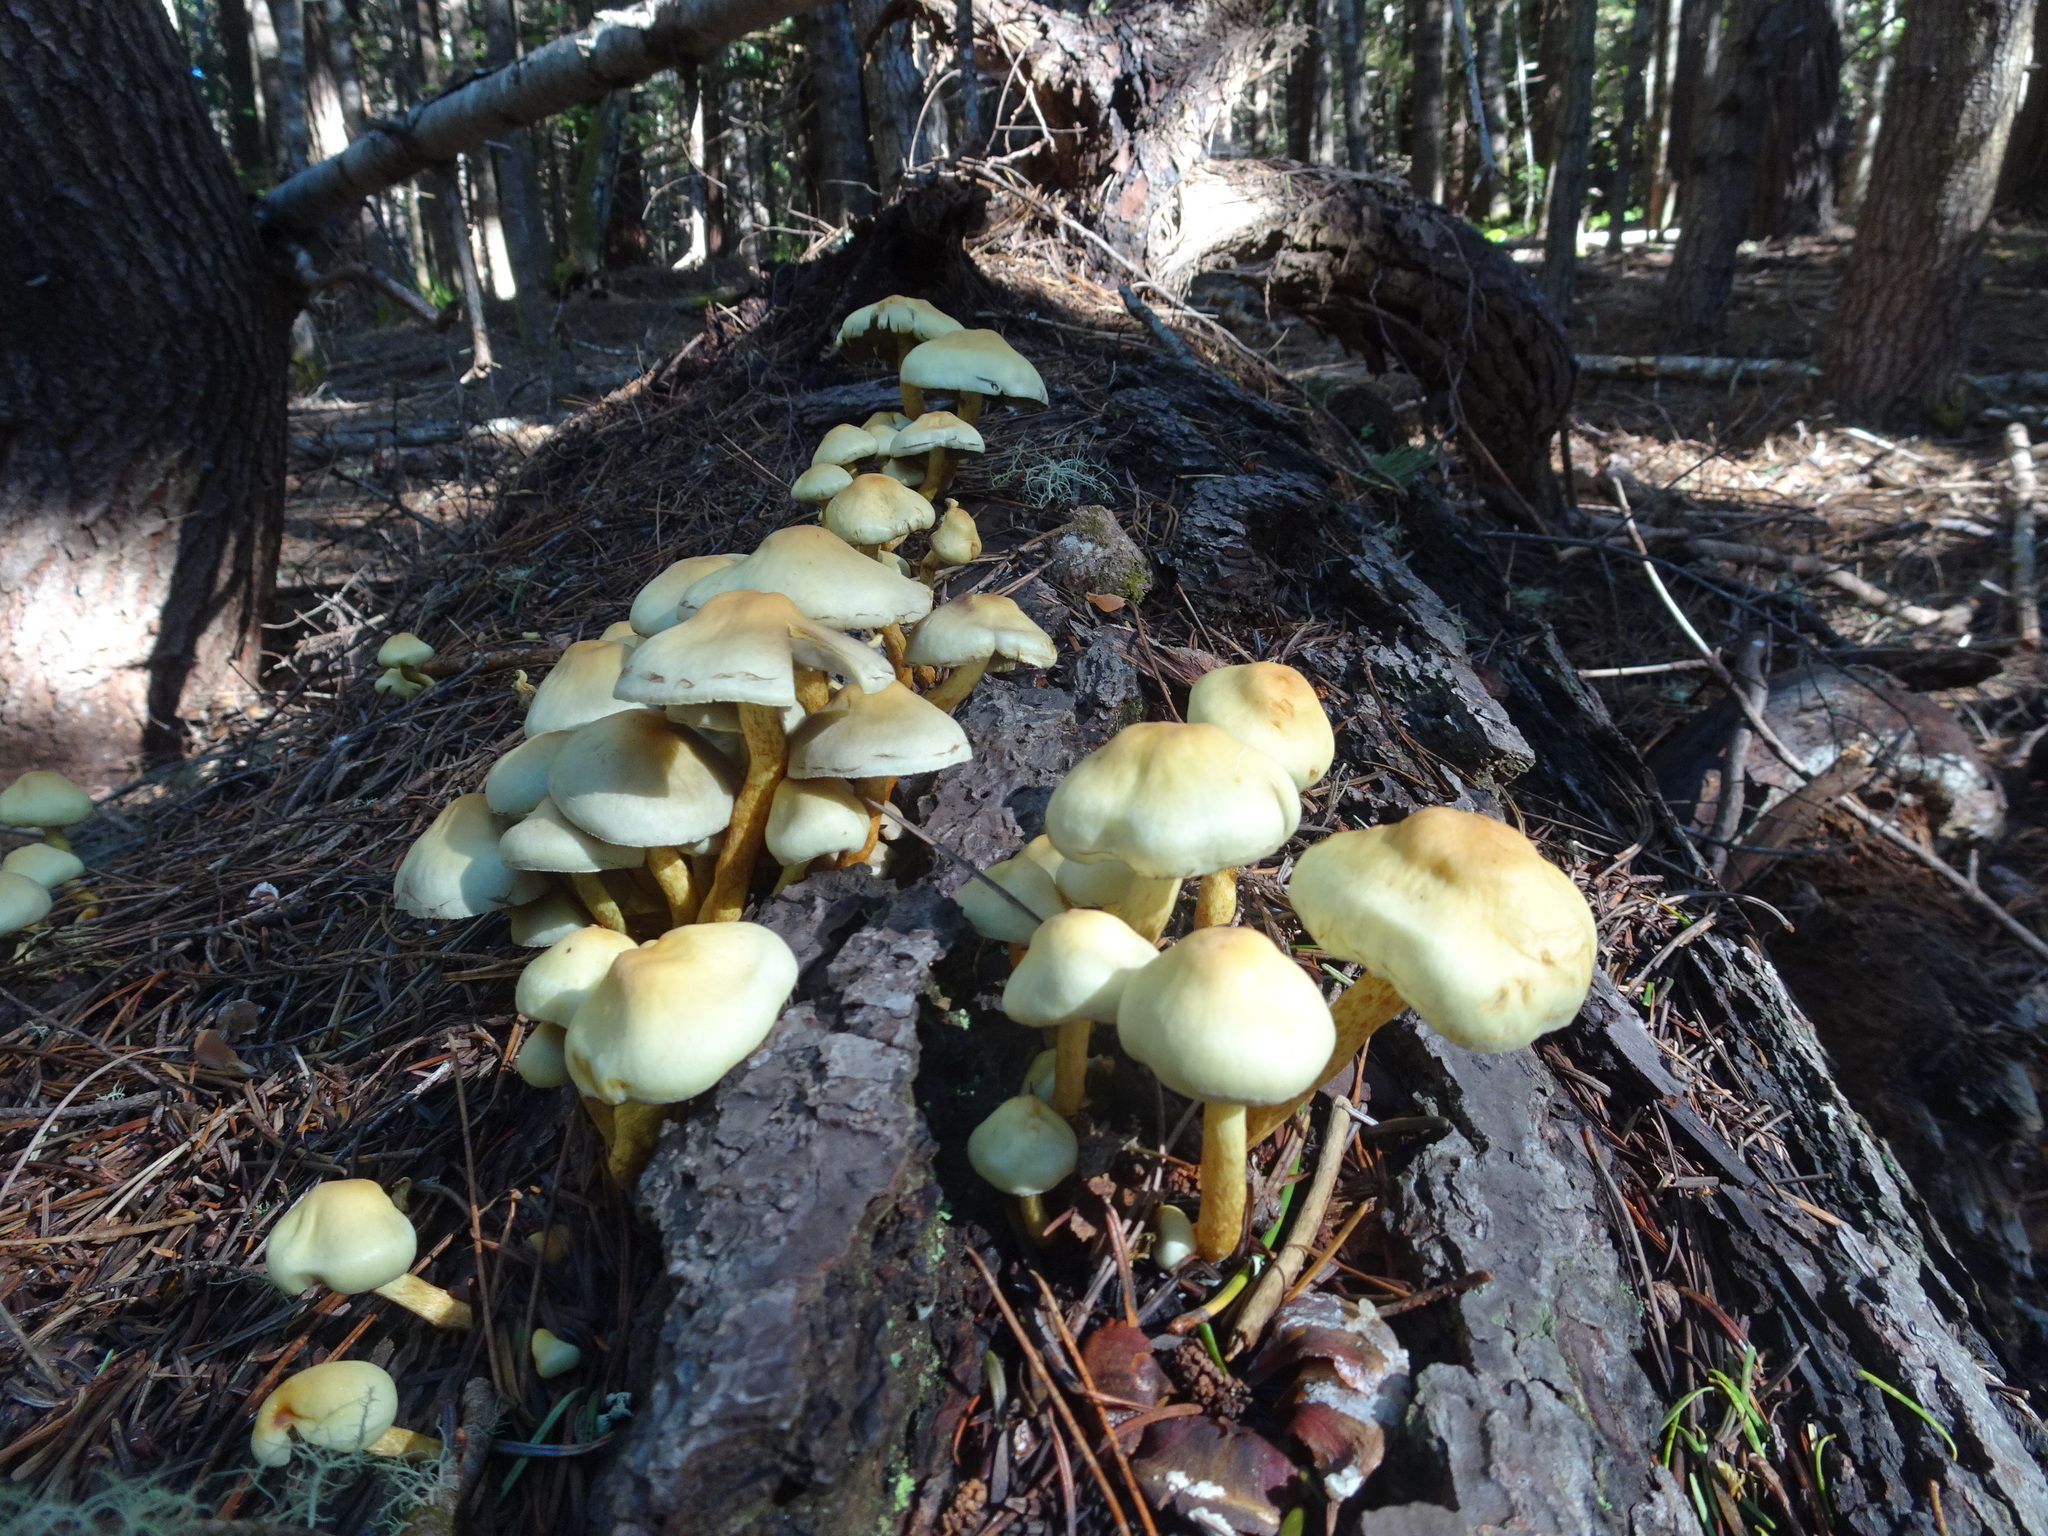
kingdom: Fungi
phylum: Basidiomycota
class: Agaricomycetes
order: Agaricales
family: Strophariaceae
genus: Hypholoma
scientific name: Hypholoma fasciculare
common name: Sulphur tuft
